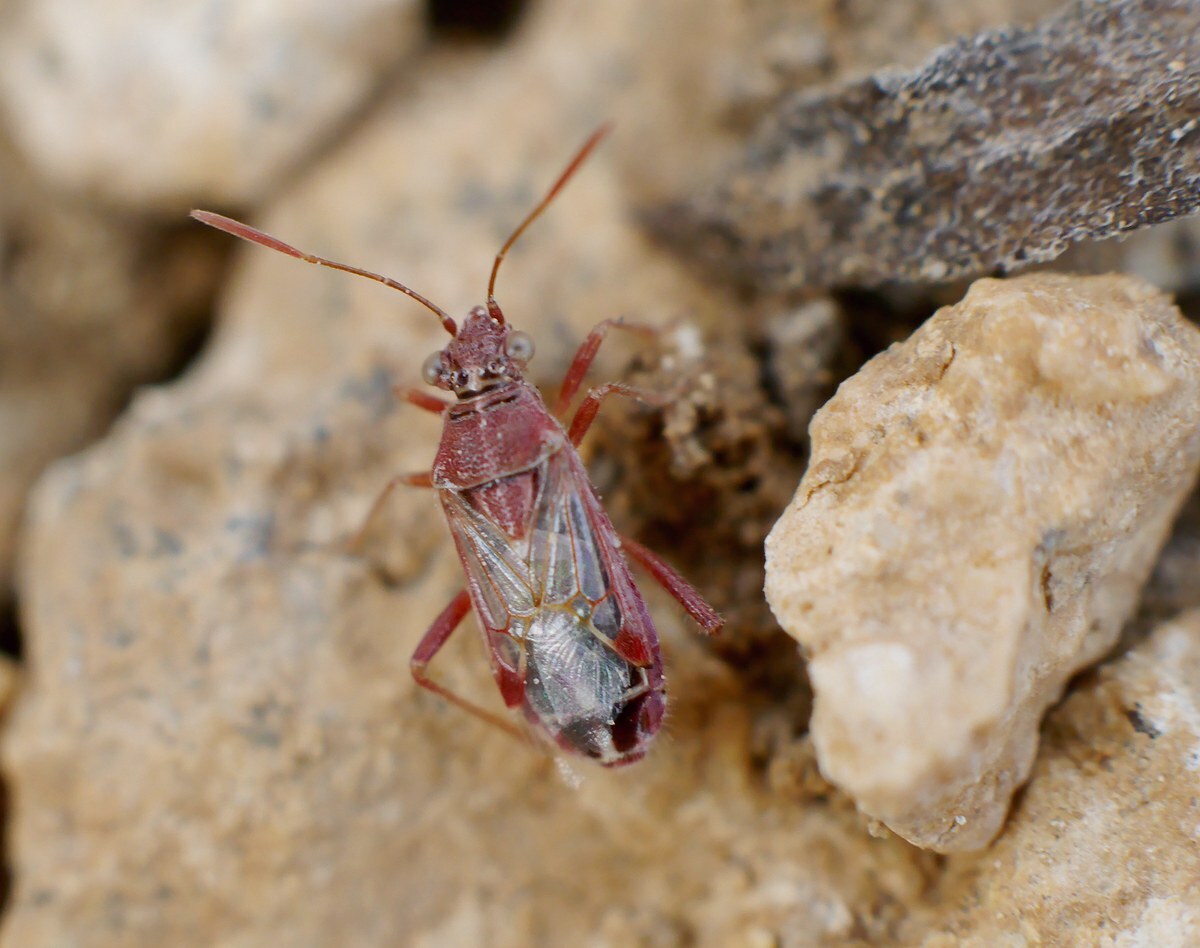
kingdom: Animalia
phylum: Arthropoda
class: Insecta
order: Hemiptera
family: Rhopalidae
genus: Liorhyssus
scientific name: Liorhyssus hyalinus
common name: Scentless plant bug
